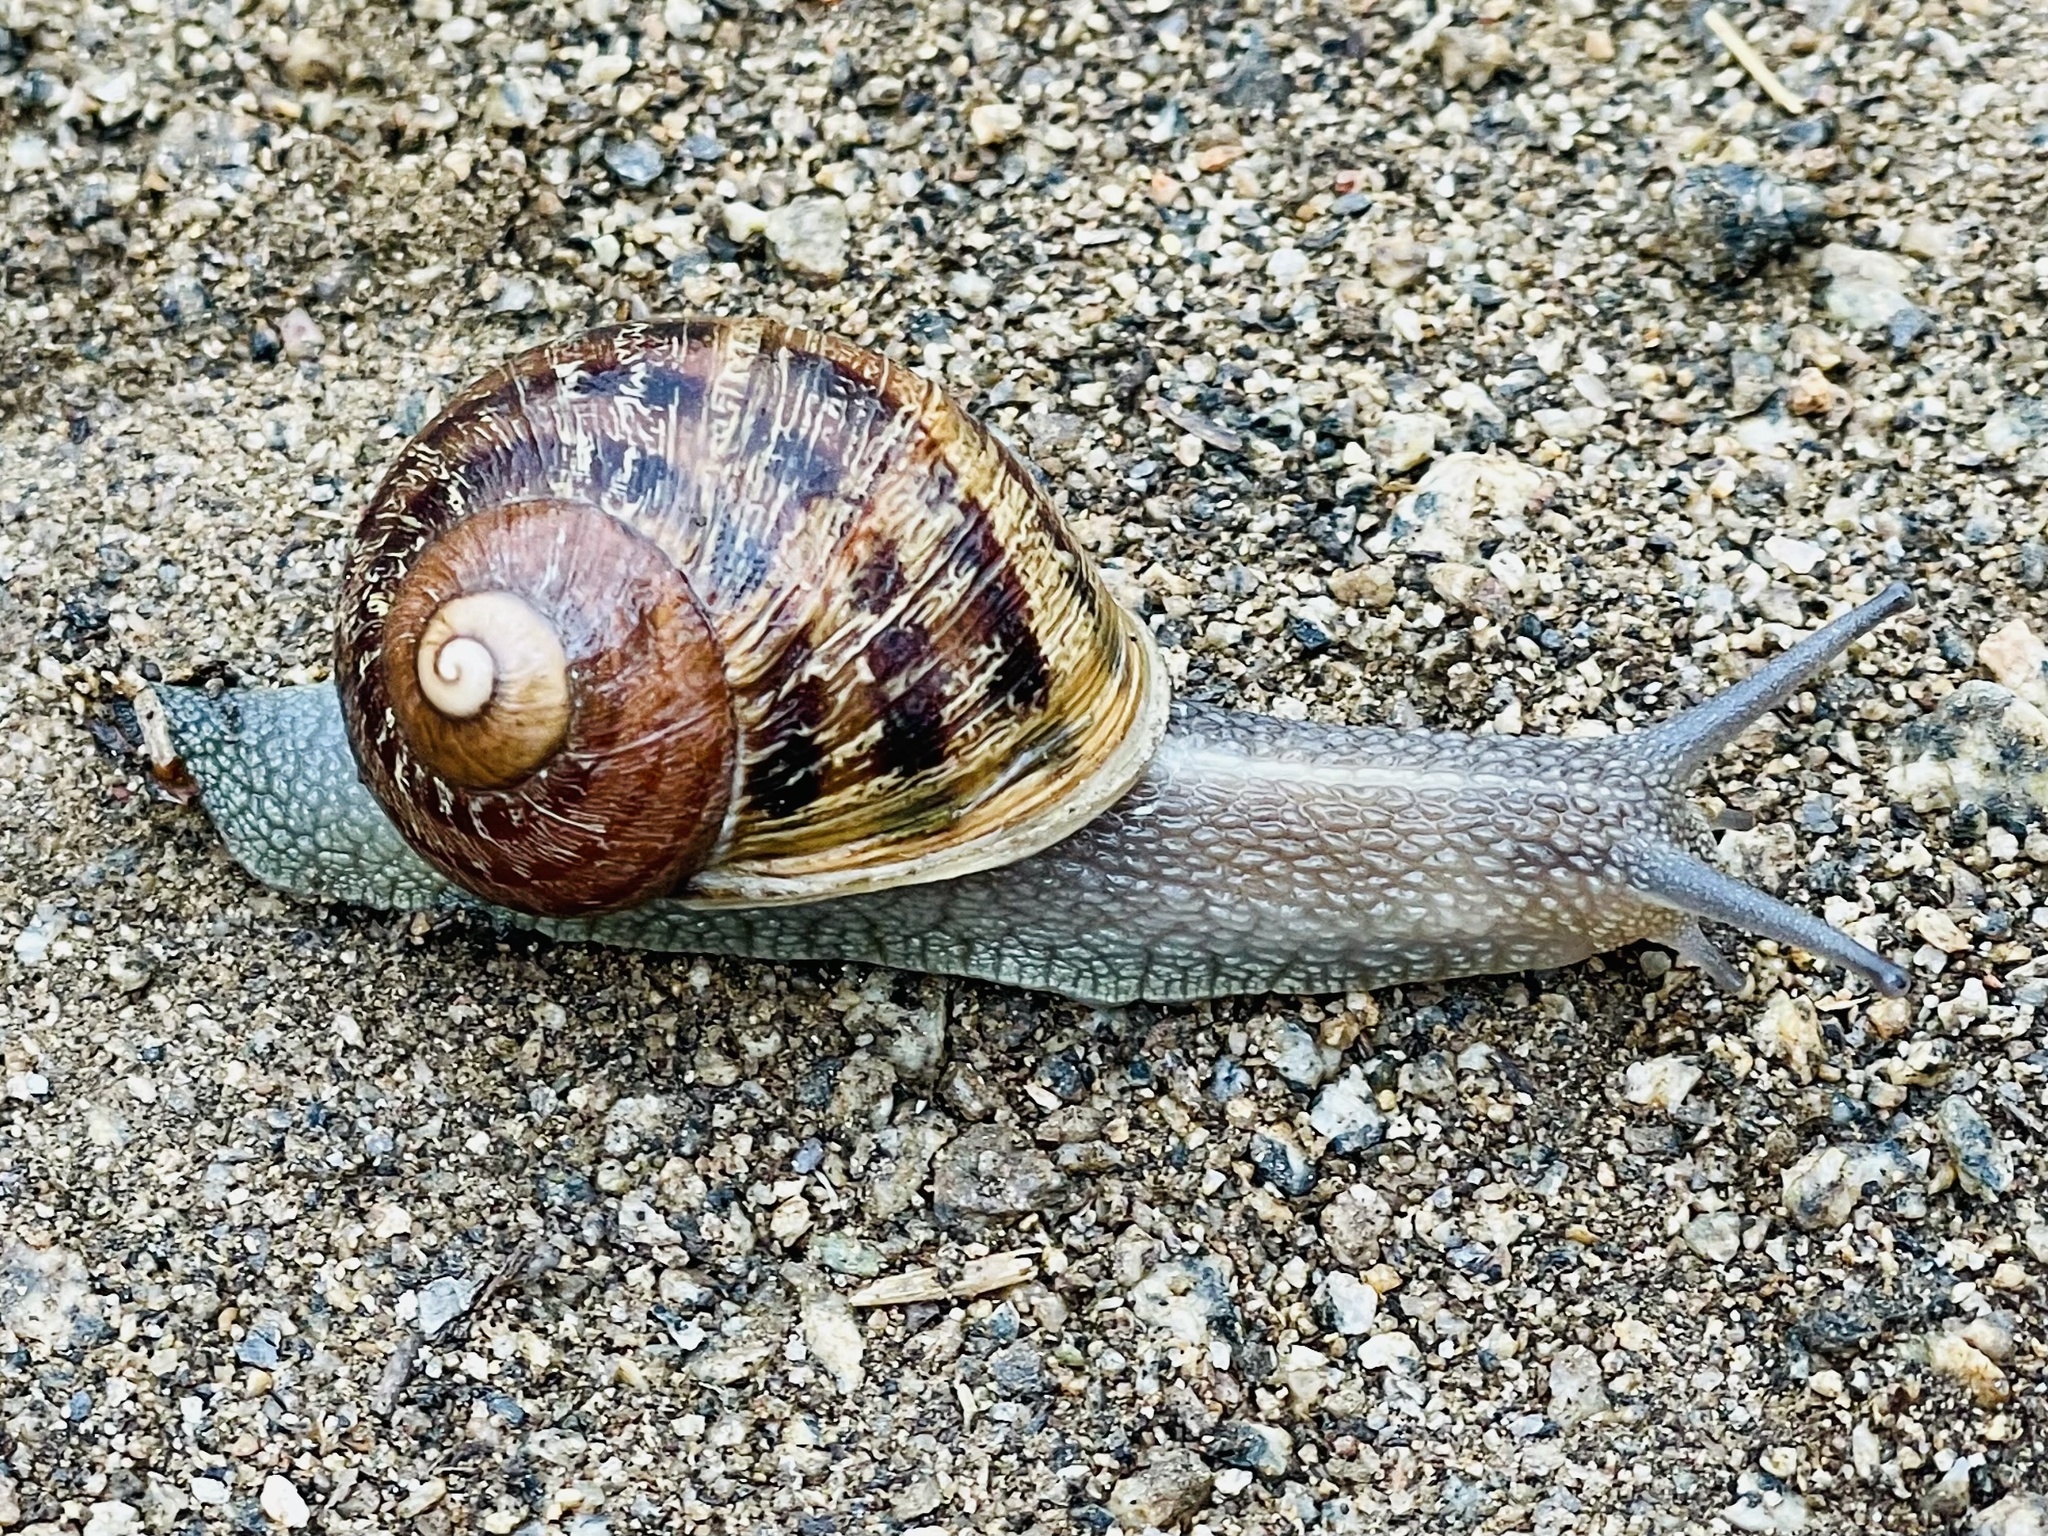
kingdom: Animalia
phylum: Mollusca
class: Gastropoda
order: Stylommatophora
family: Helicidae
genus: Cornu
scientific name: Cornu aspersum
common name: Brown garden snail
